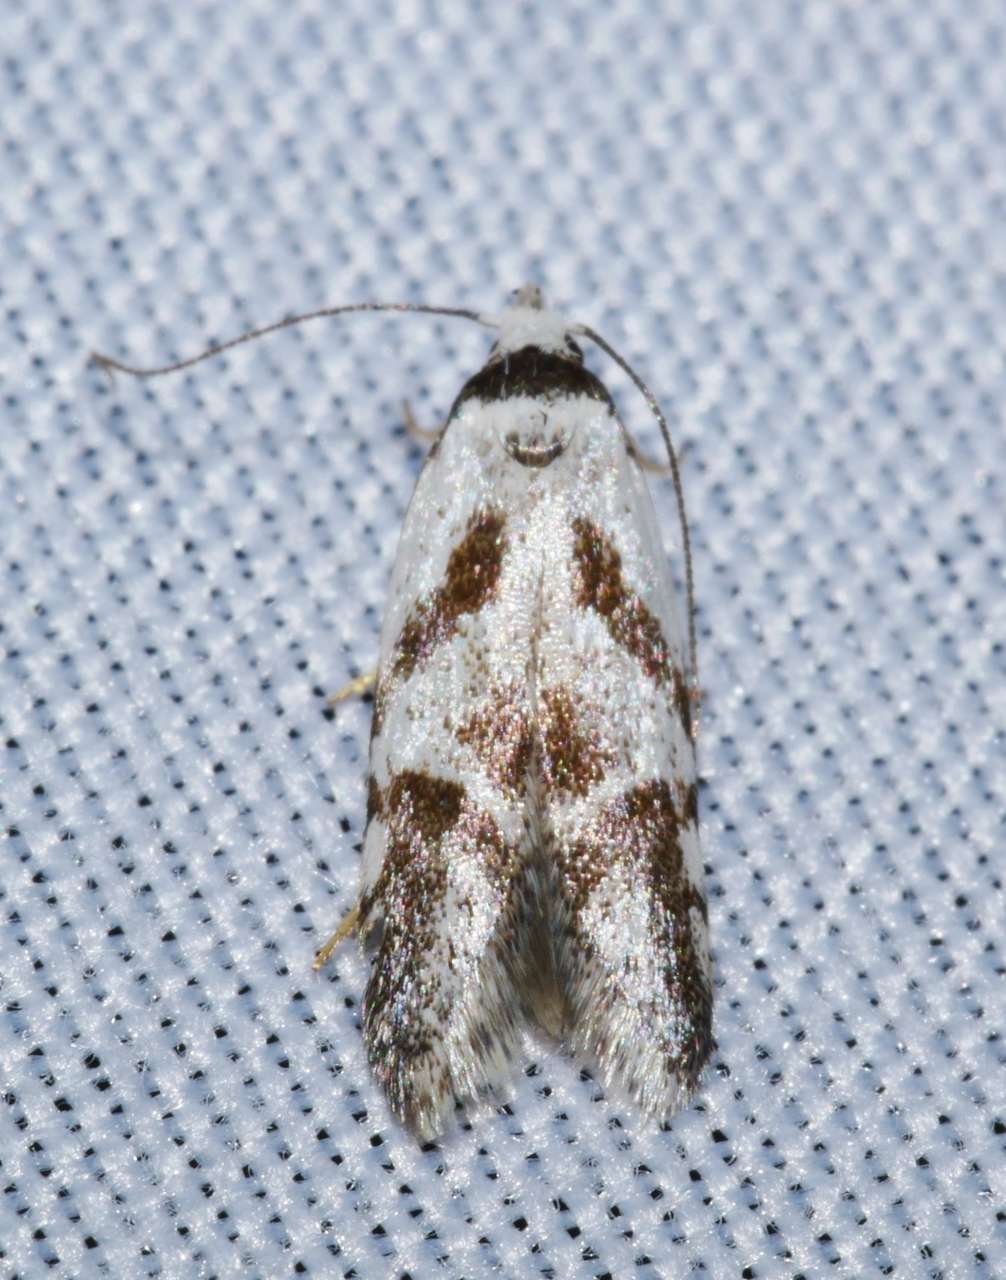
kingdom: Animalia
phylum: Arthropoda
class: Insecta
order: Lepidoptera
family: Oecophoridae
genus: Oxythecta
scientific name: Oxythecta lygrosema
